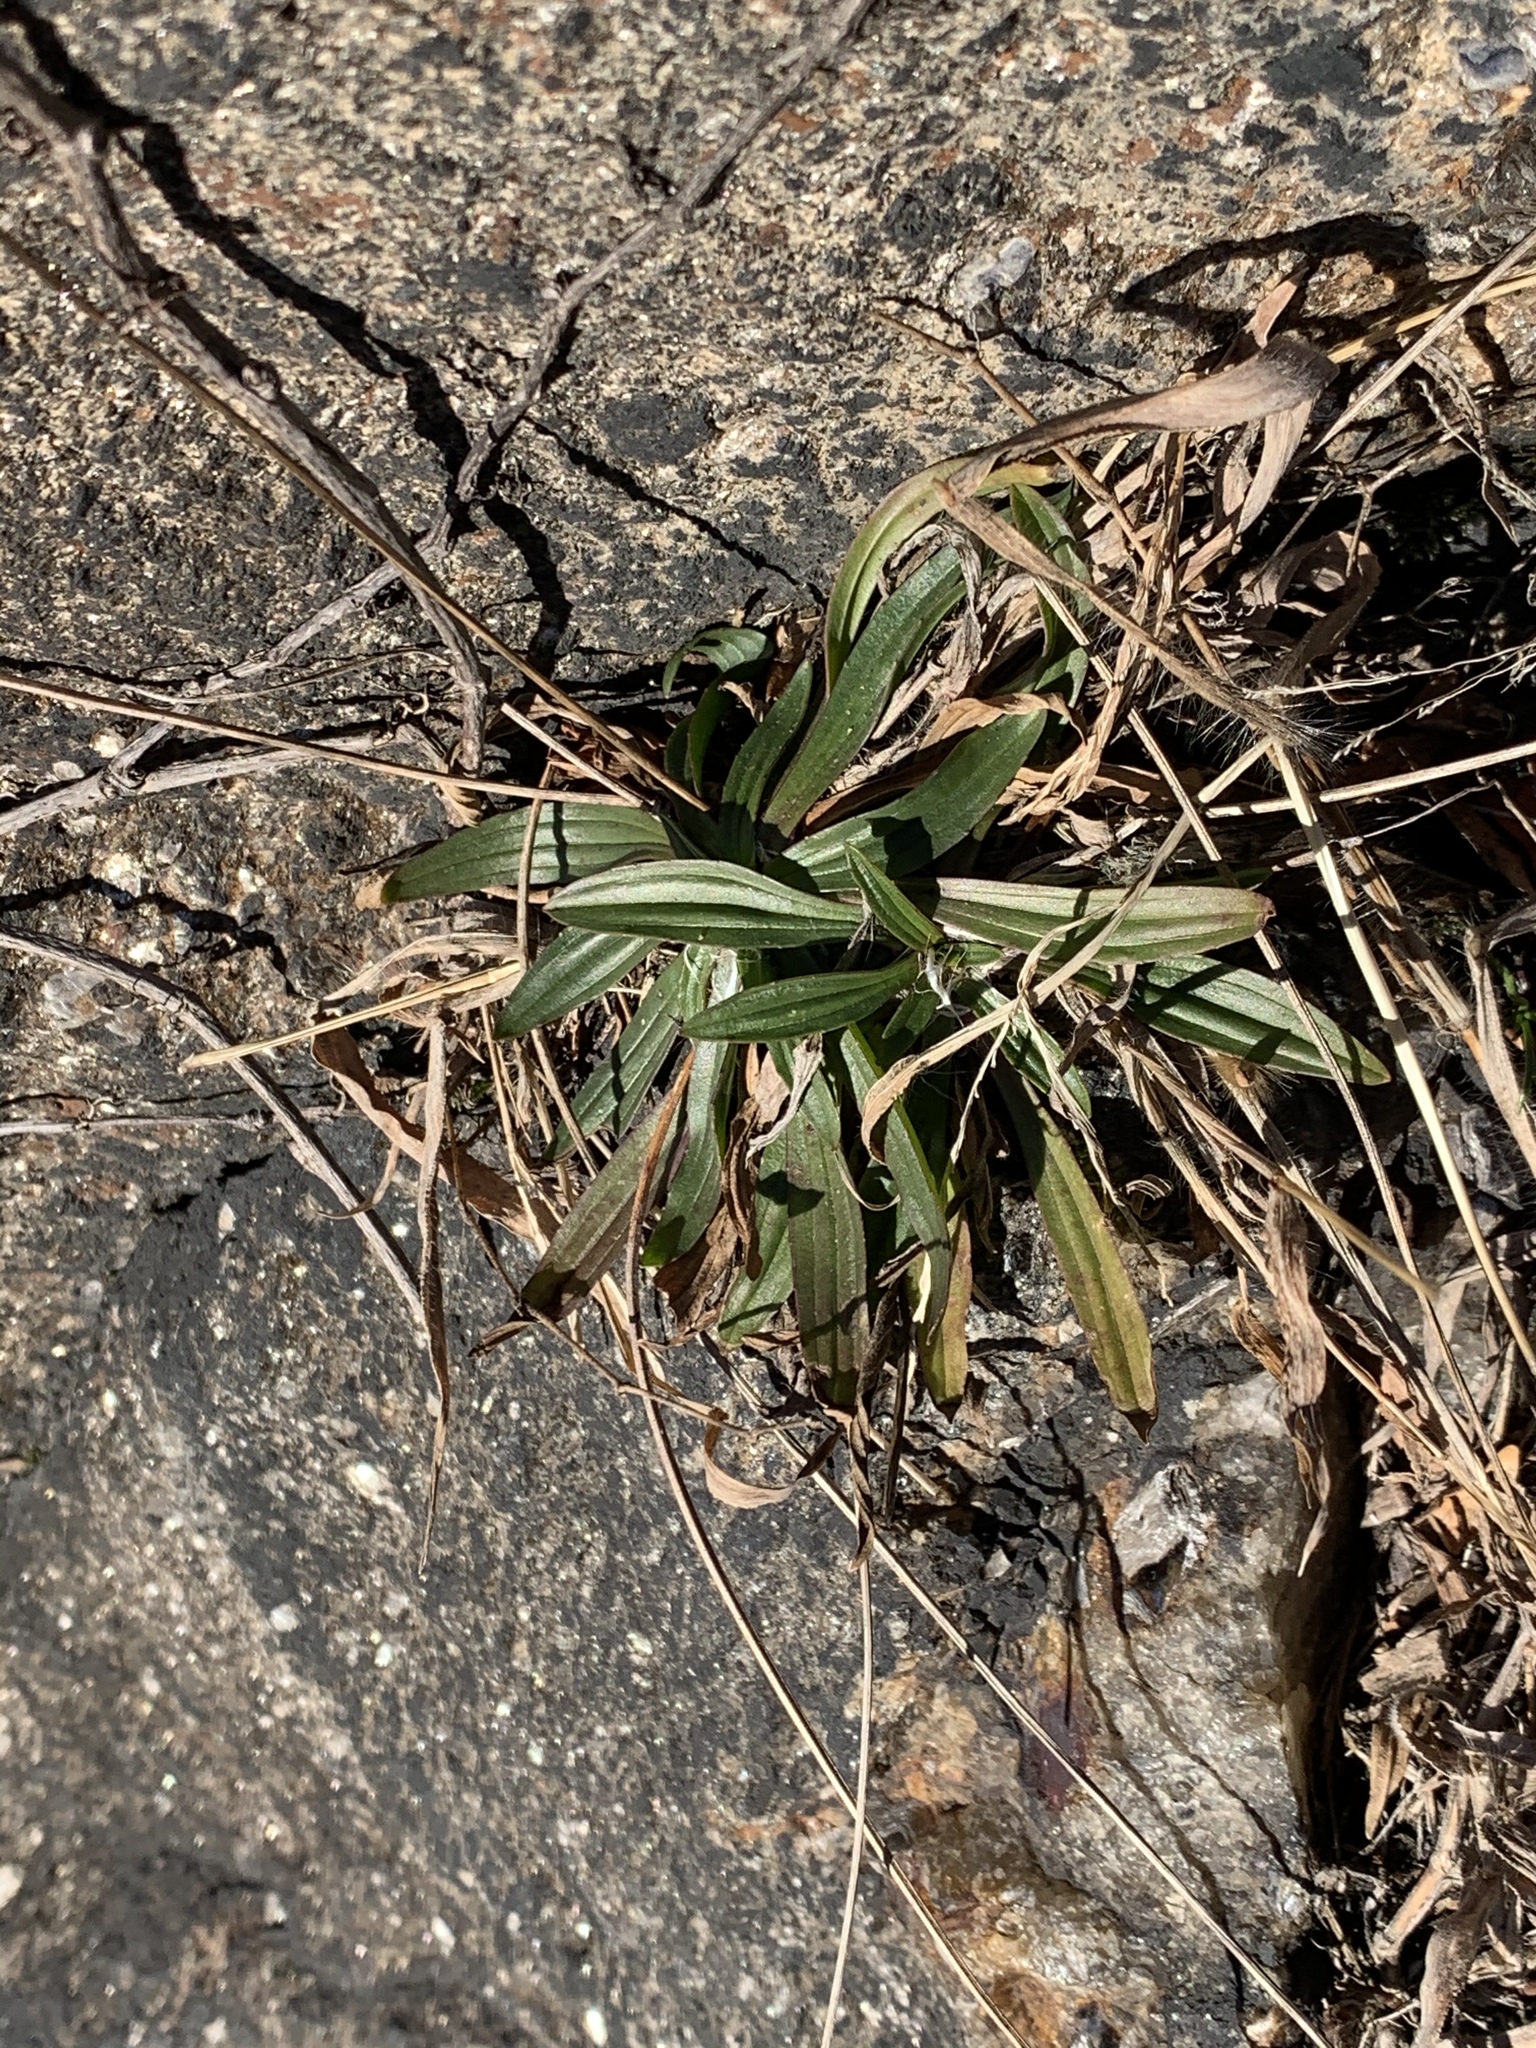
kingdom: Plantae
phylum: Tracheophyta
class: Magnoliopsida
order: Lamiales
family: Plantaginaceae
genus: Plantago
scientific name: Plantago lanceolata
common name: Ribwort plantain
